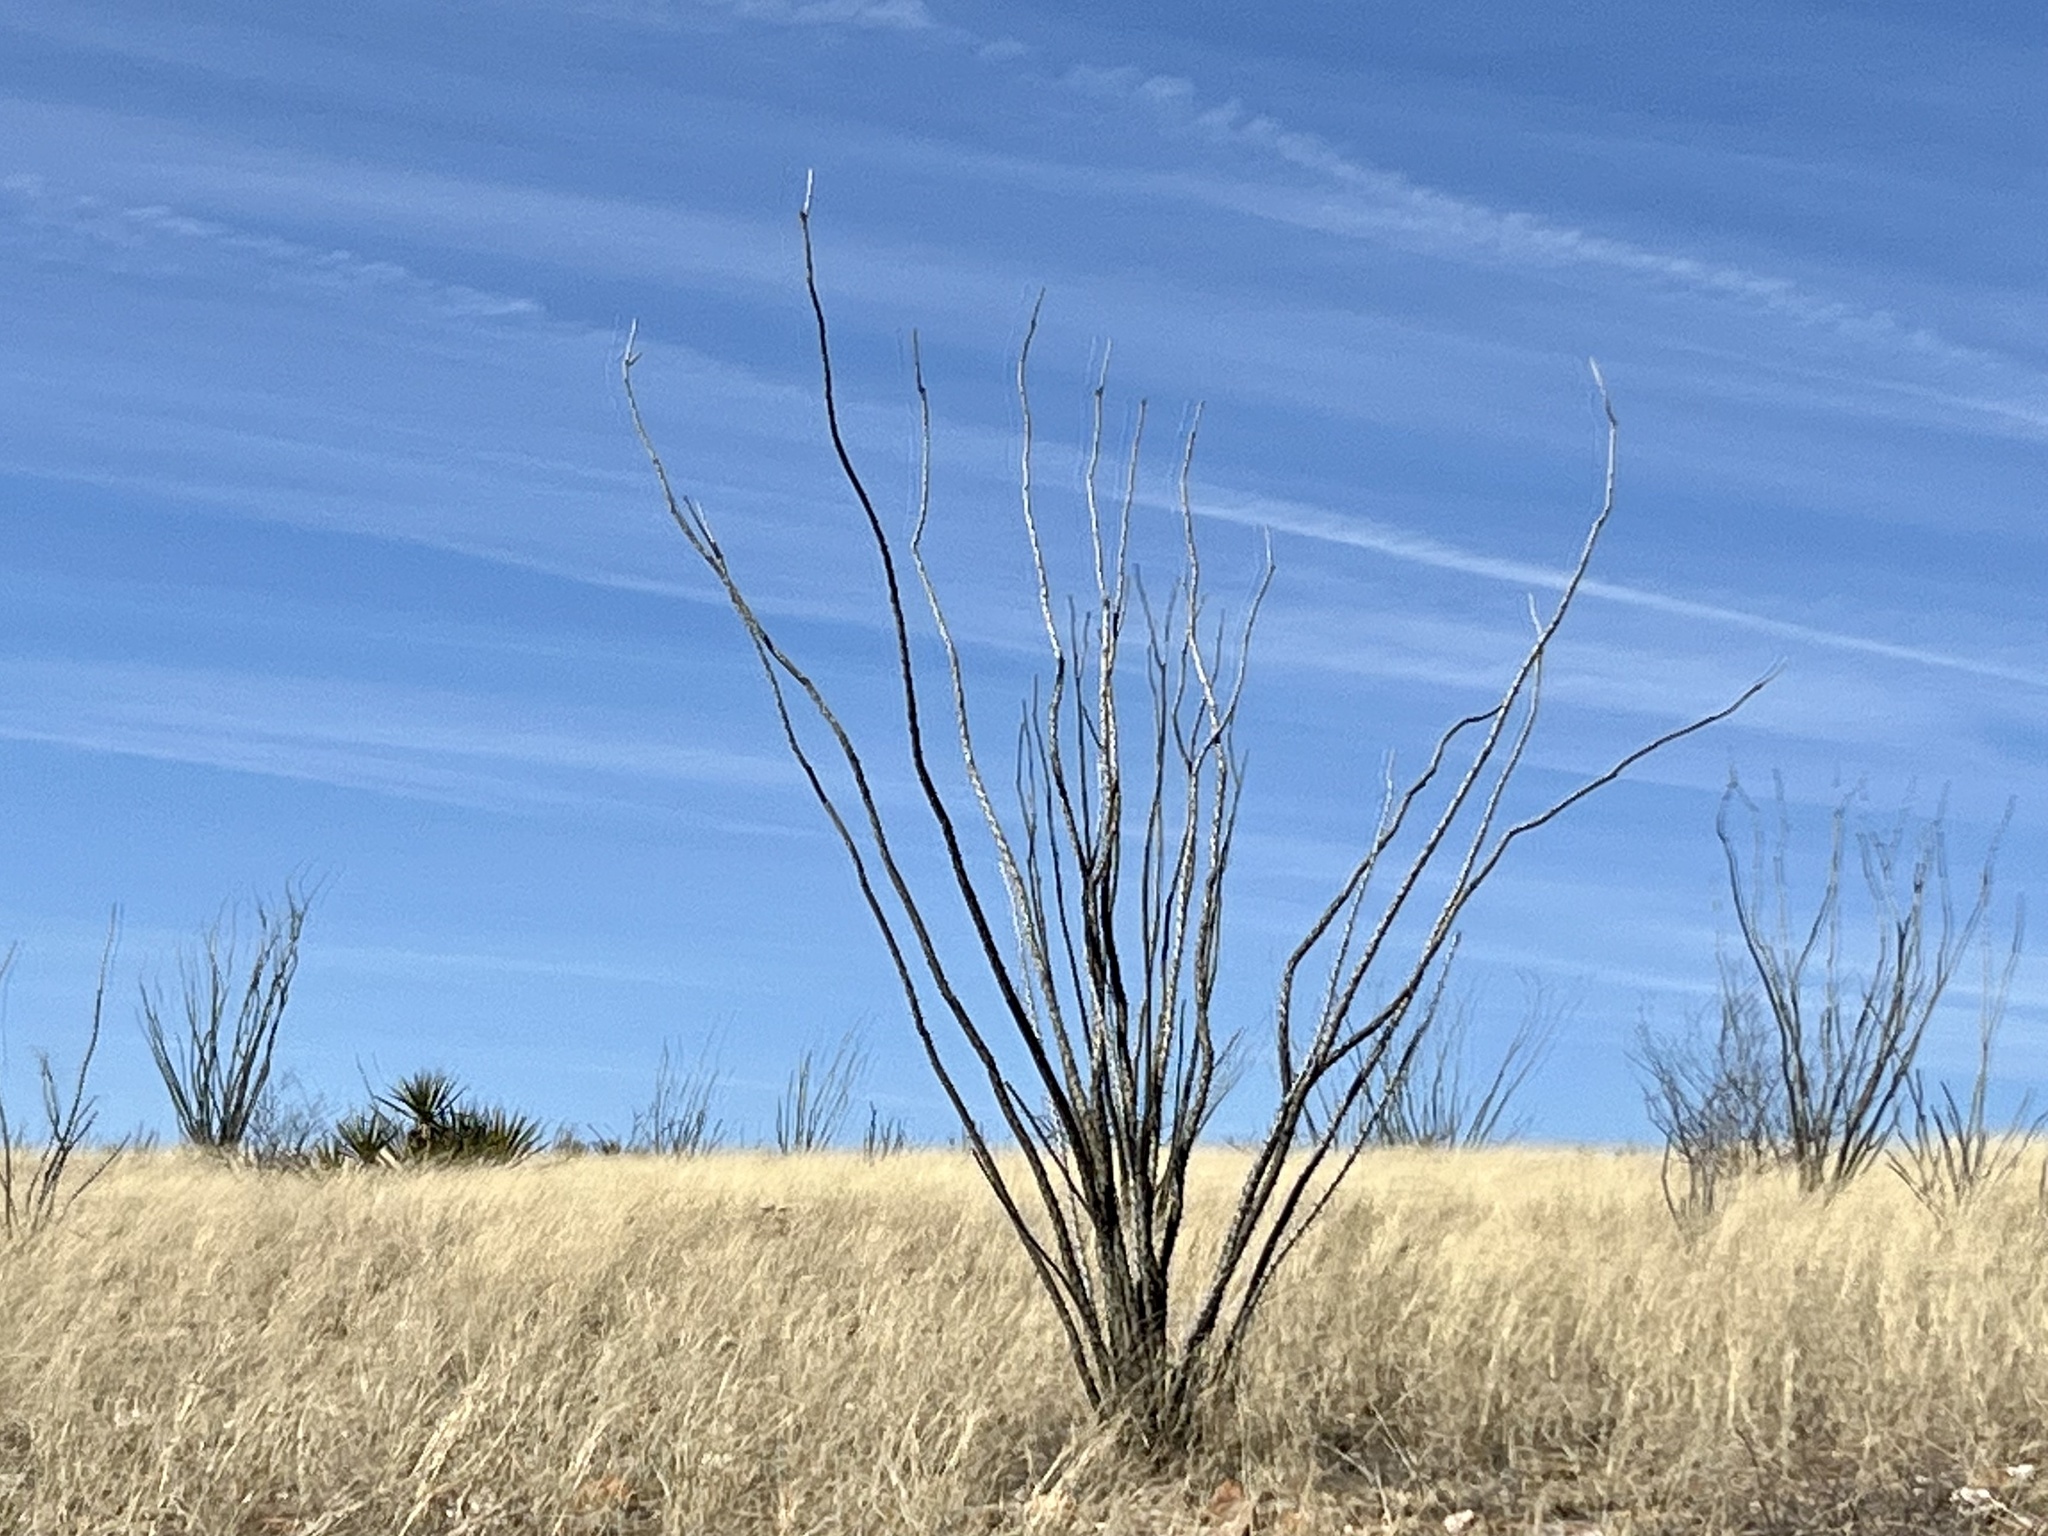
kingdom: Plantae
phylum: Tracheophyta
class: Magnoliopsida
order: Ericales
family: Fouquieriaceae
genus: Fouquieria
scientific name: Fouquieria splendens
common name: Vine-cactus
